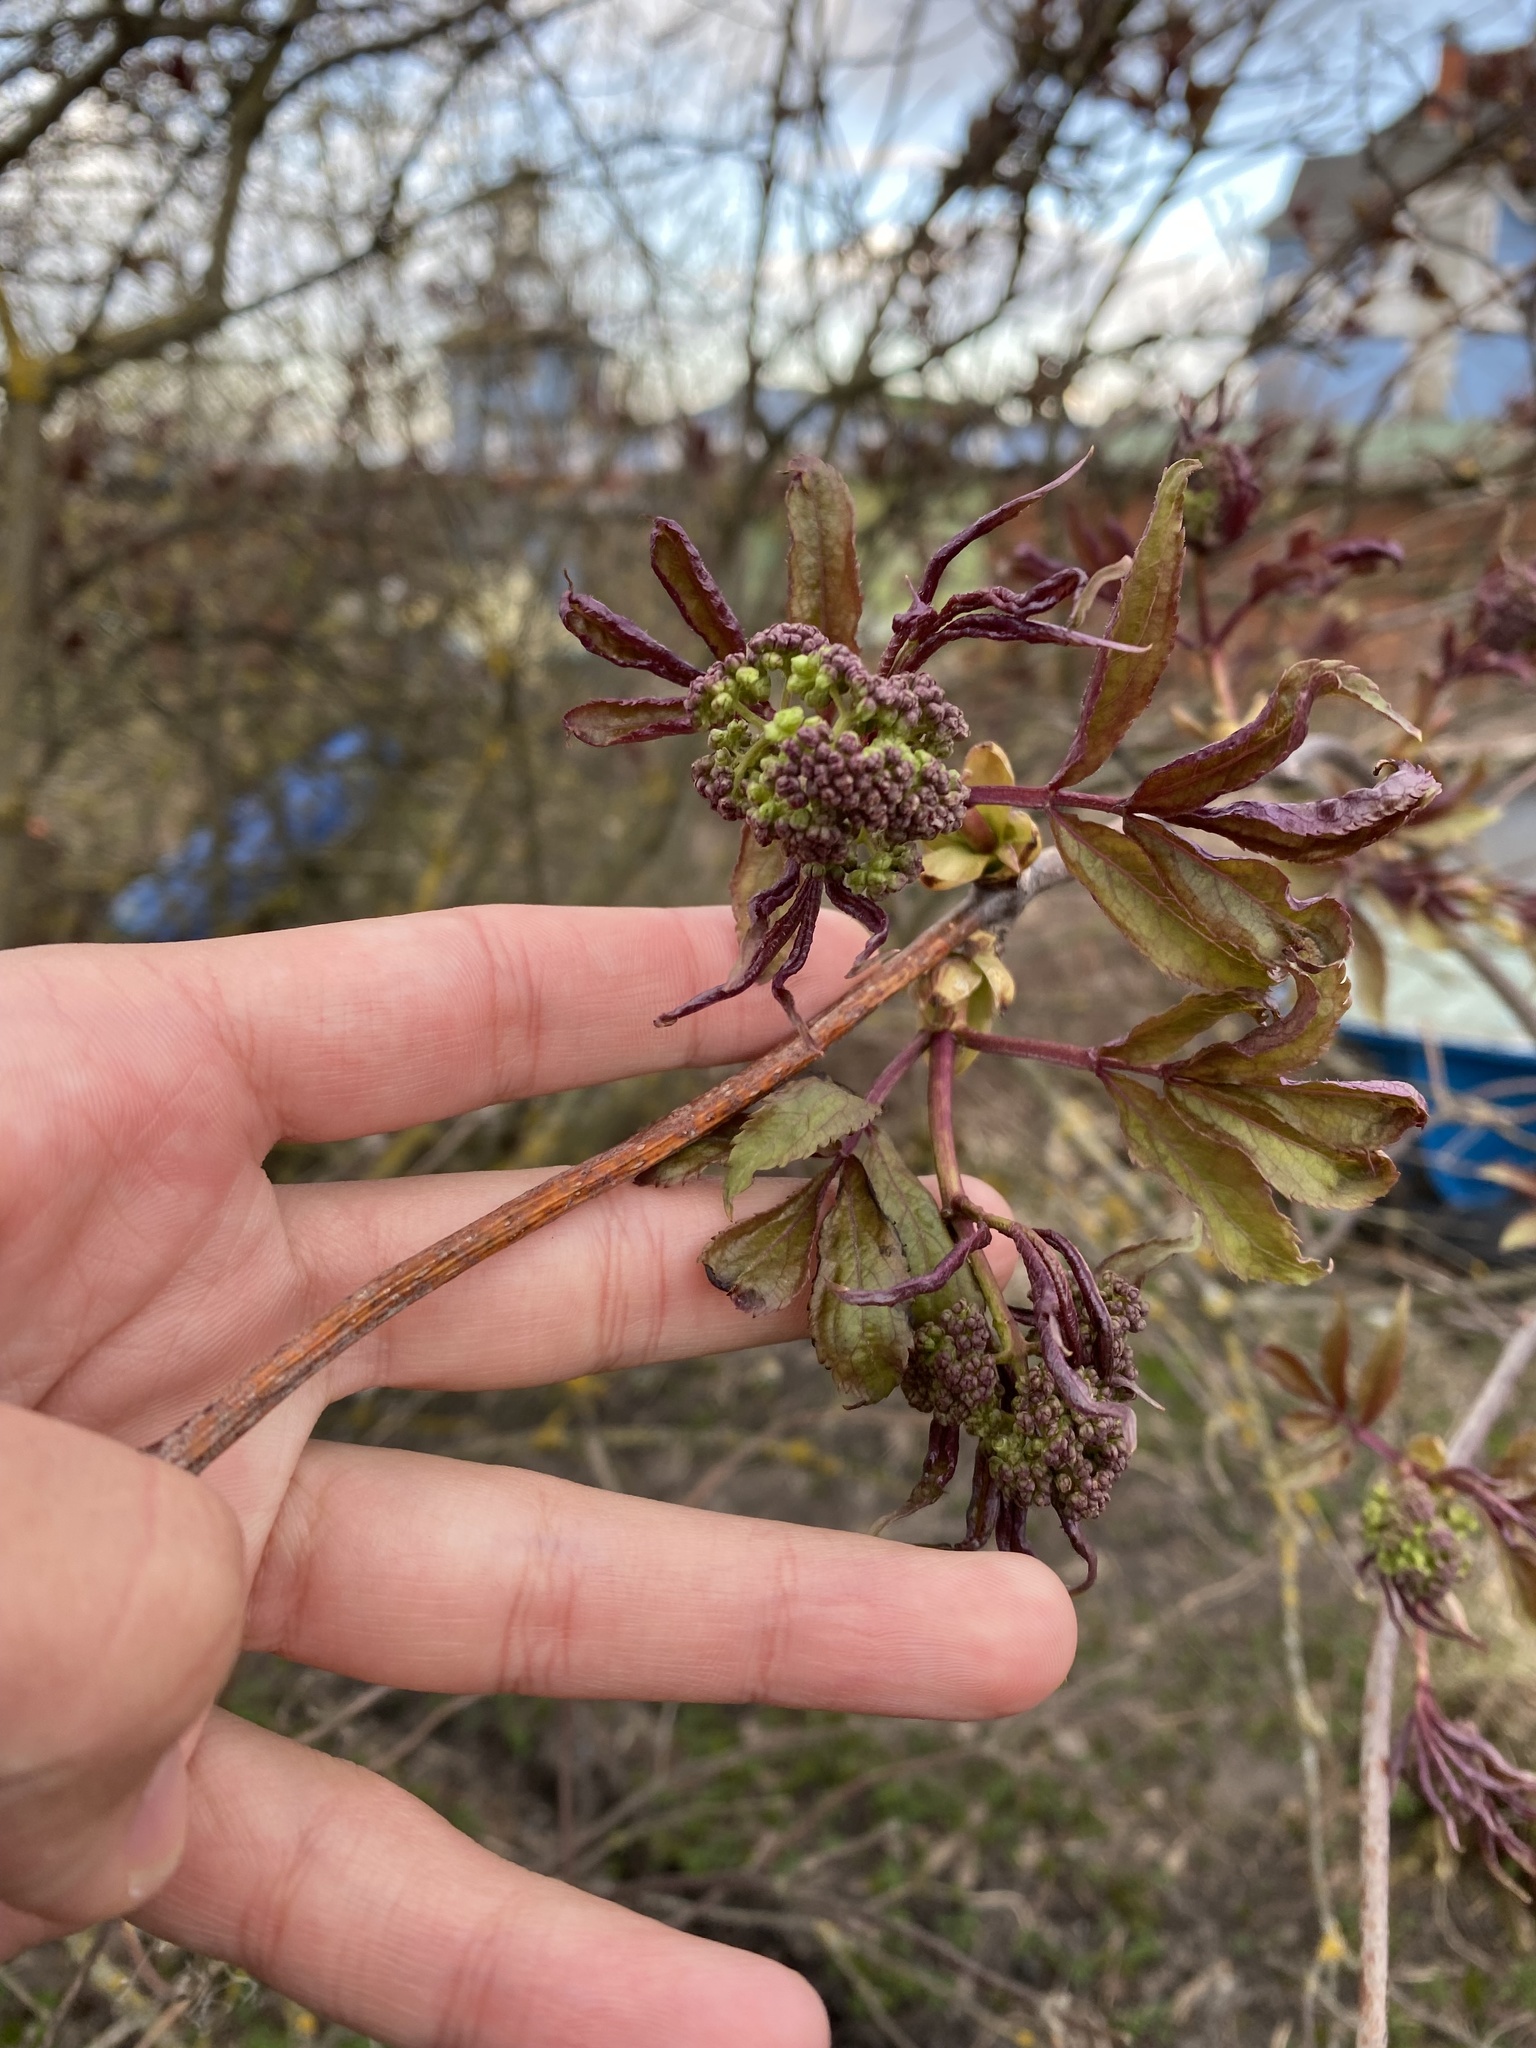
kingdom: Plantae
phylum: Tracheophyta
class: Magnoliopsida
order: Dipsacales
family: Viburnaceae
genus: Sambucus
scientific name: Sambucus racemosa
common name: Red-berried elder
